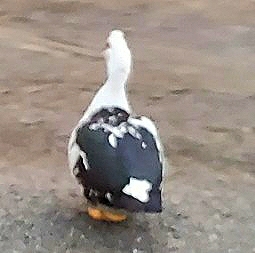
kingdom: Animalia
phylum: Chordata
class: Aves
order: Anseriformes
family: Anatidae
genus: Cairina
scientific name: Cairina moschata
